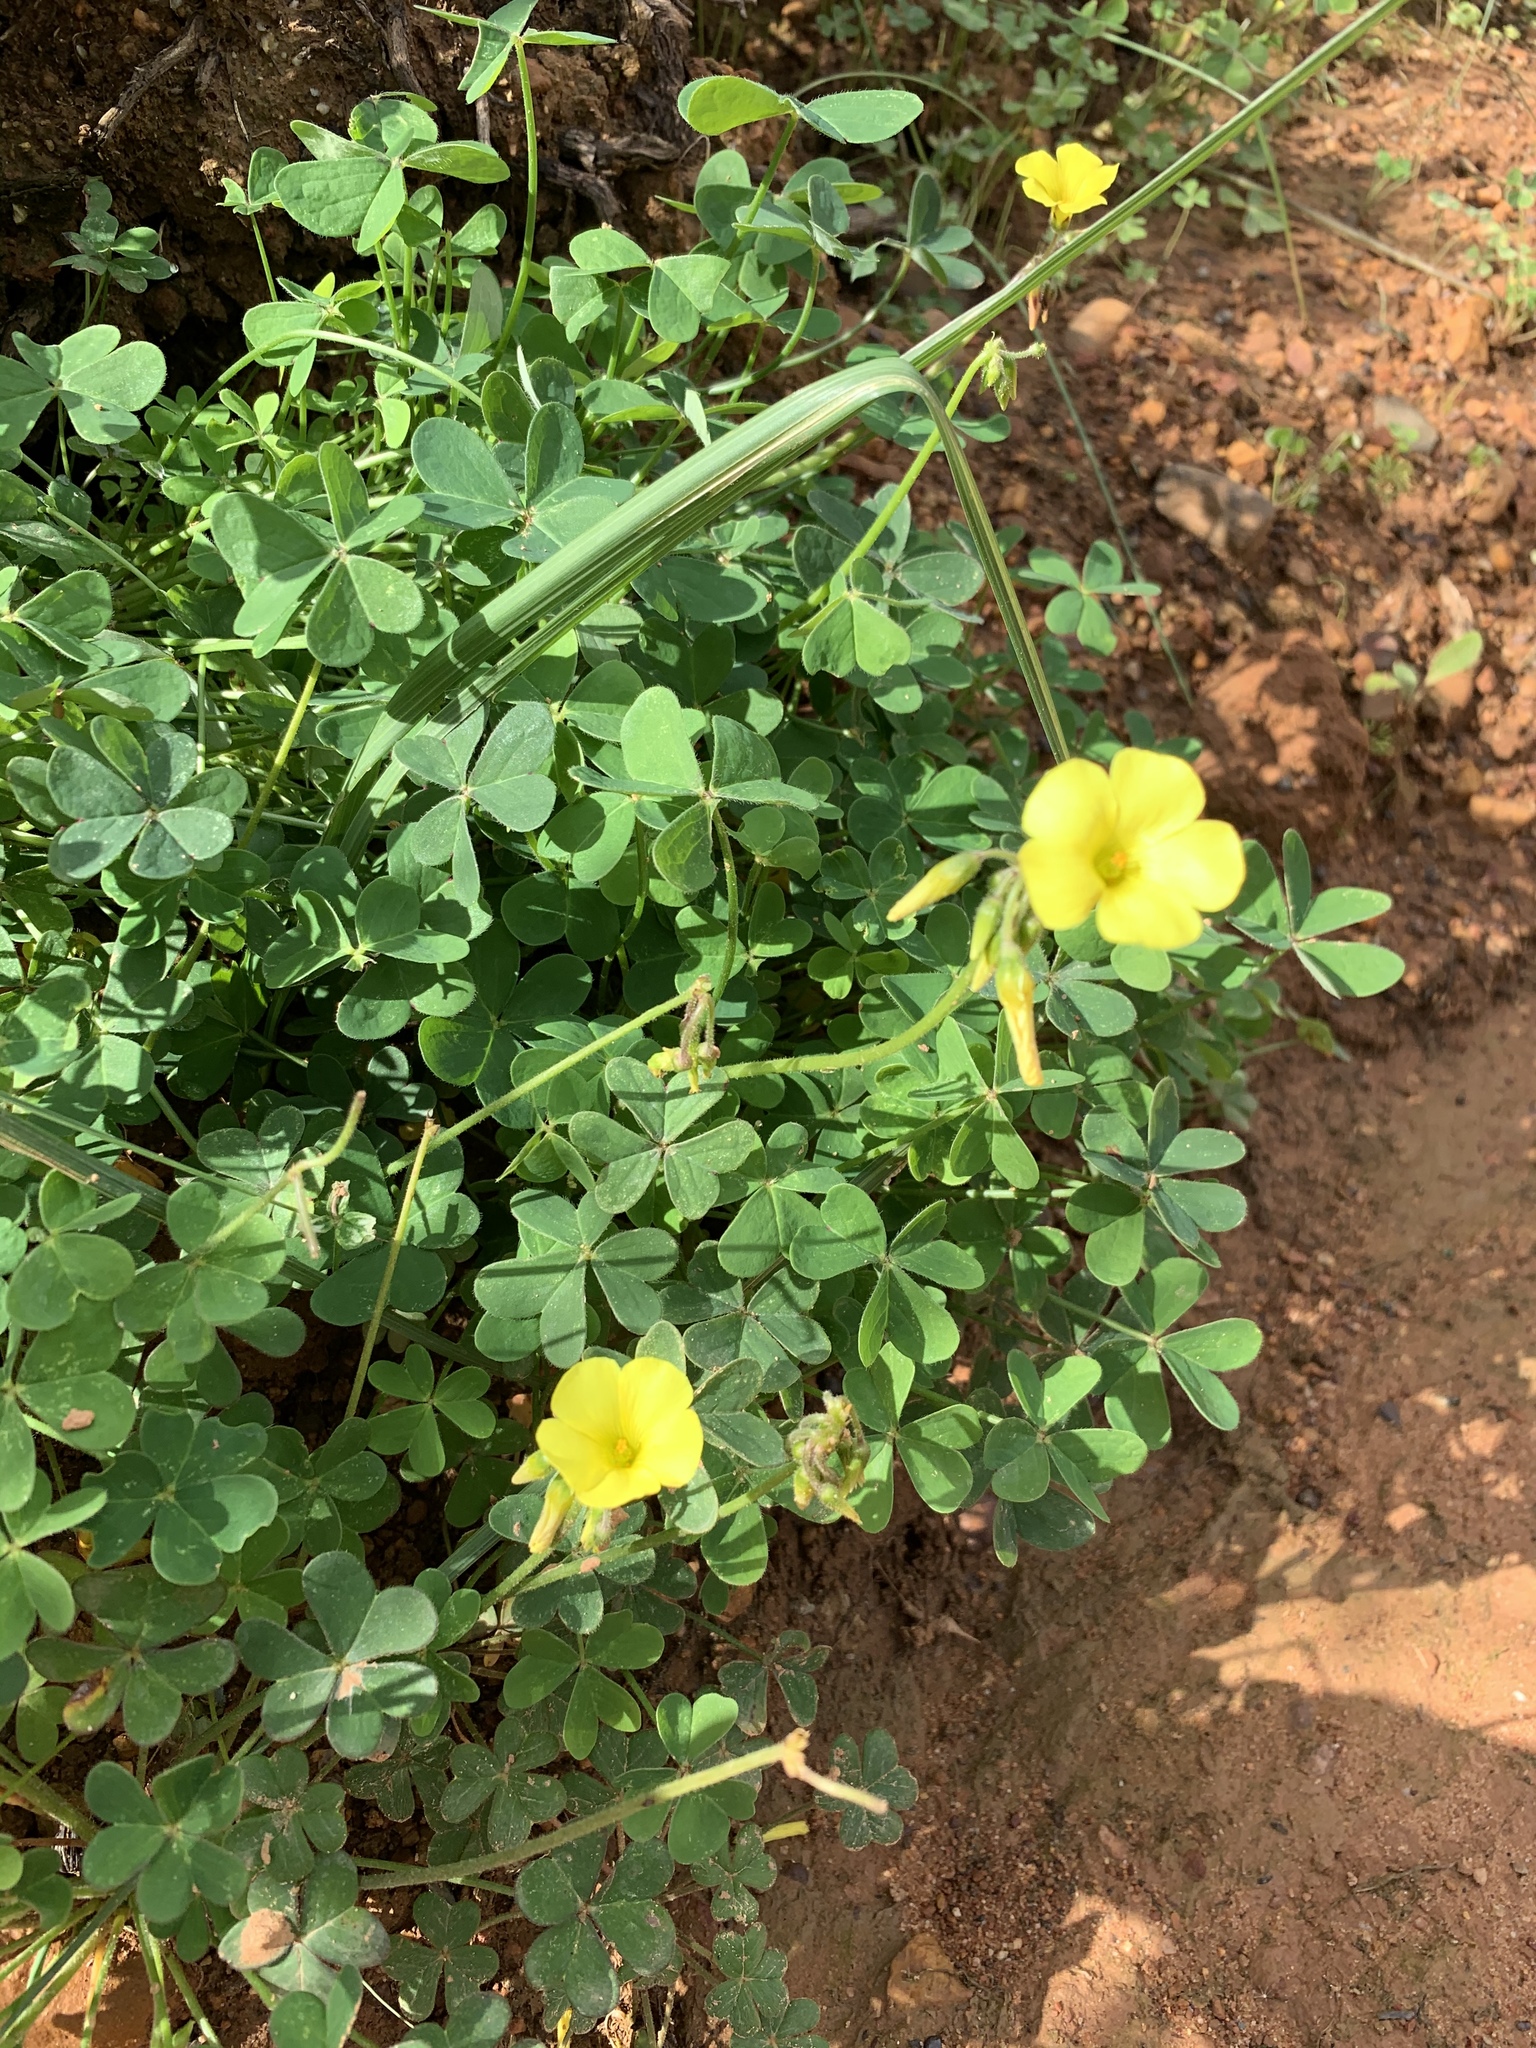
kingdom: Plantae
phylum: Tracheophyta
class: Magnoliopsida
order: Oxalidales
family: Oxalidaceae
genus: Oxalis
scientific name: Oxalis pes-caprae
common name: Bermuda-buttercup
